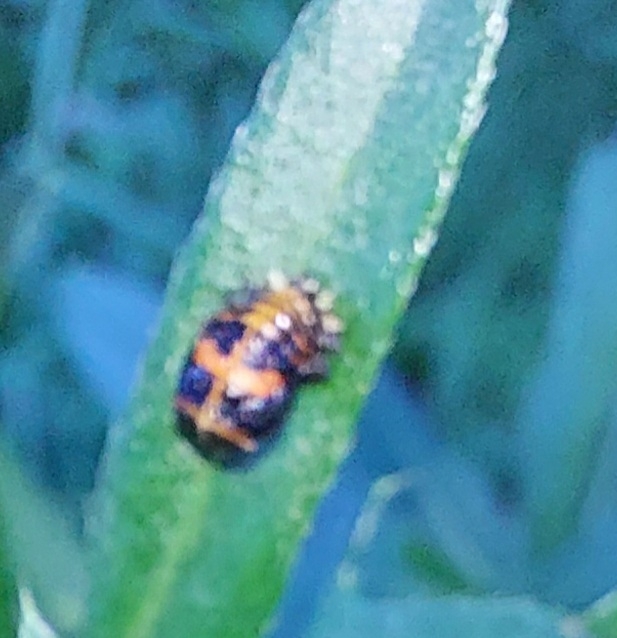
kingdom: Animalia
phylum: Arthropoda
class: Insecta
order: Coleoptera
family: Coccinellidae
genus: Harmonia
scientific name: Harmonia axyridis
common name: Harlequin ladybird
